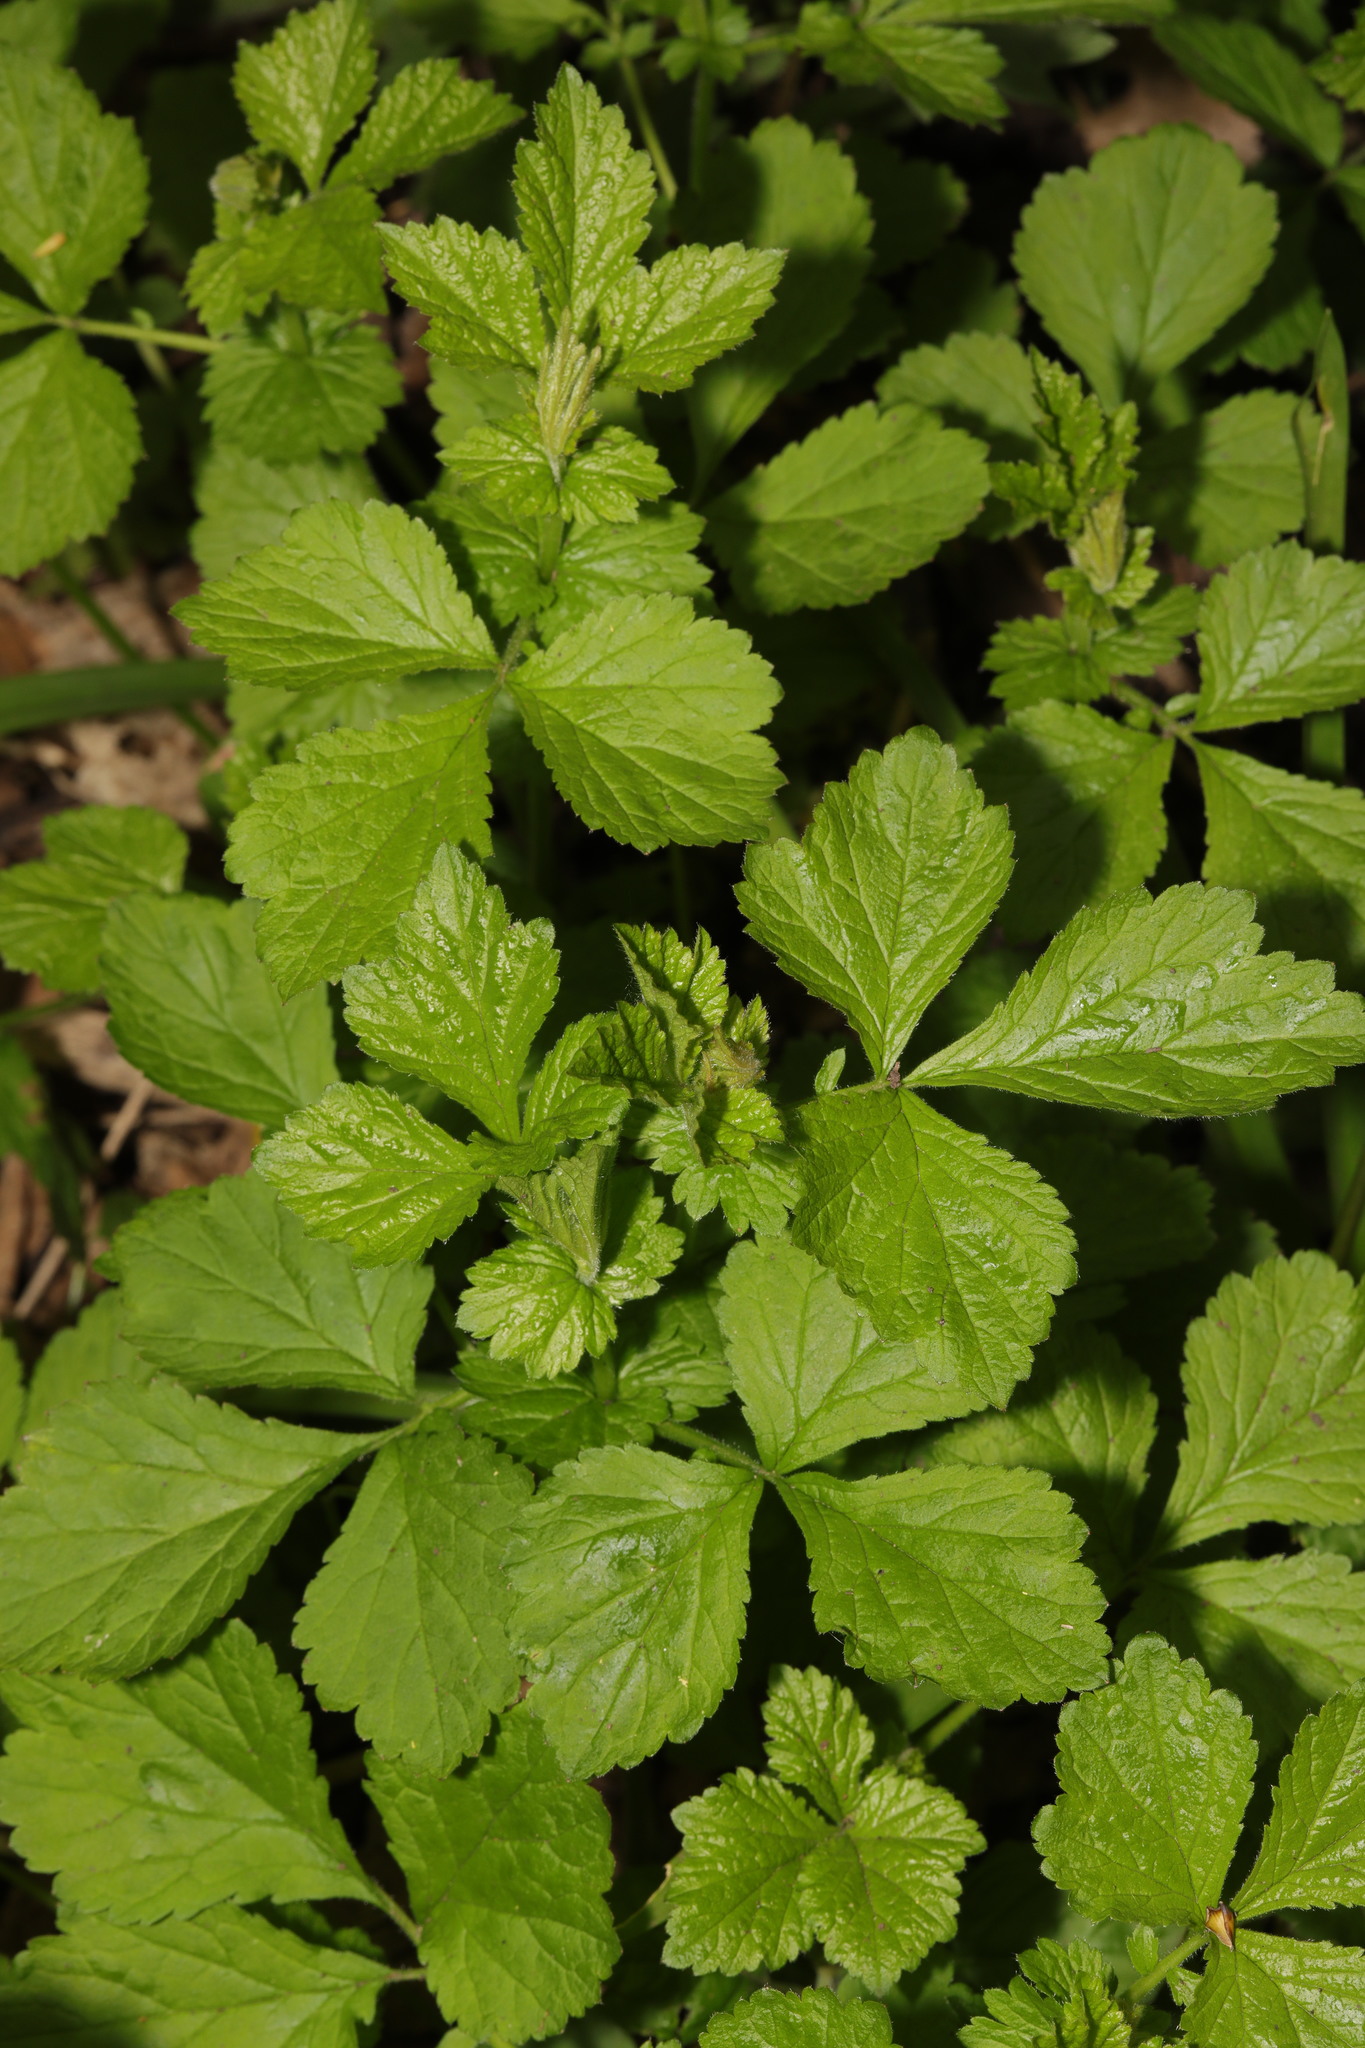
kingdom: Plantae
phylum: Tracheophyta
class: Magnoliopsida
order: Rosales
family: Rosaceae
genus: Geum
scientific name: Geum urbanum
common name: Wood avens
